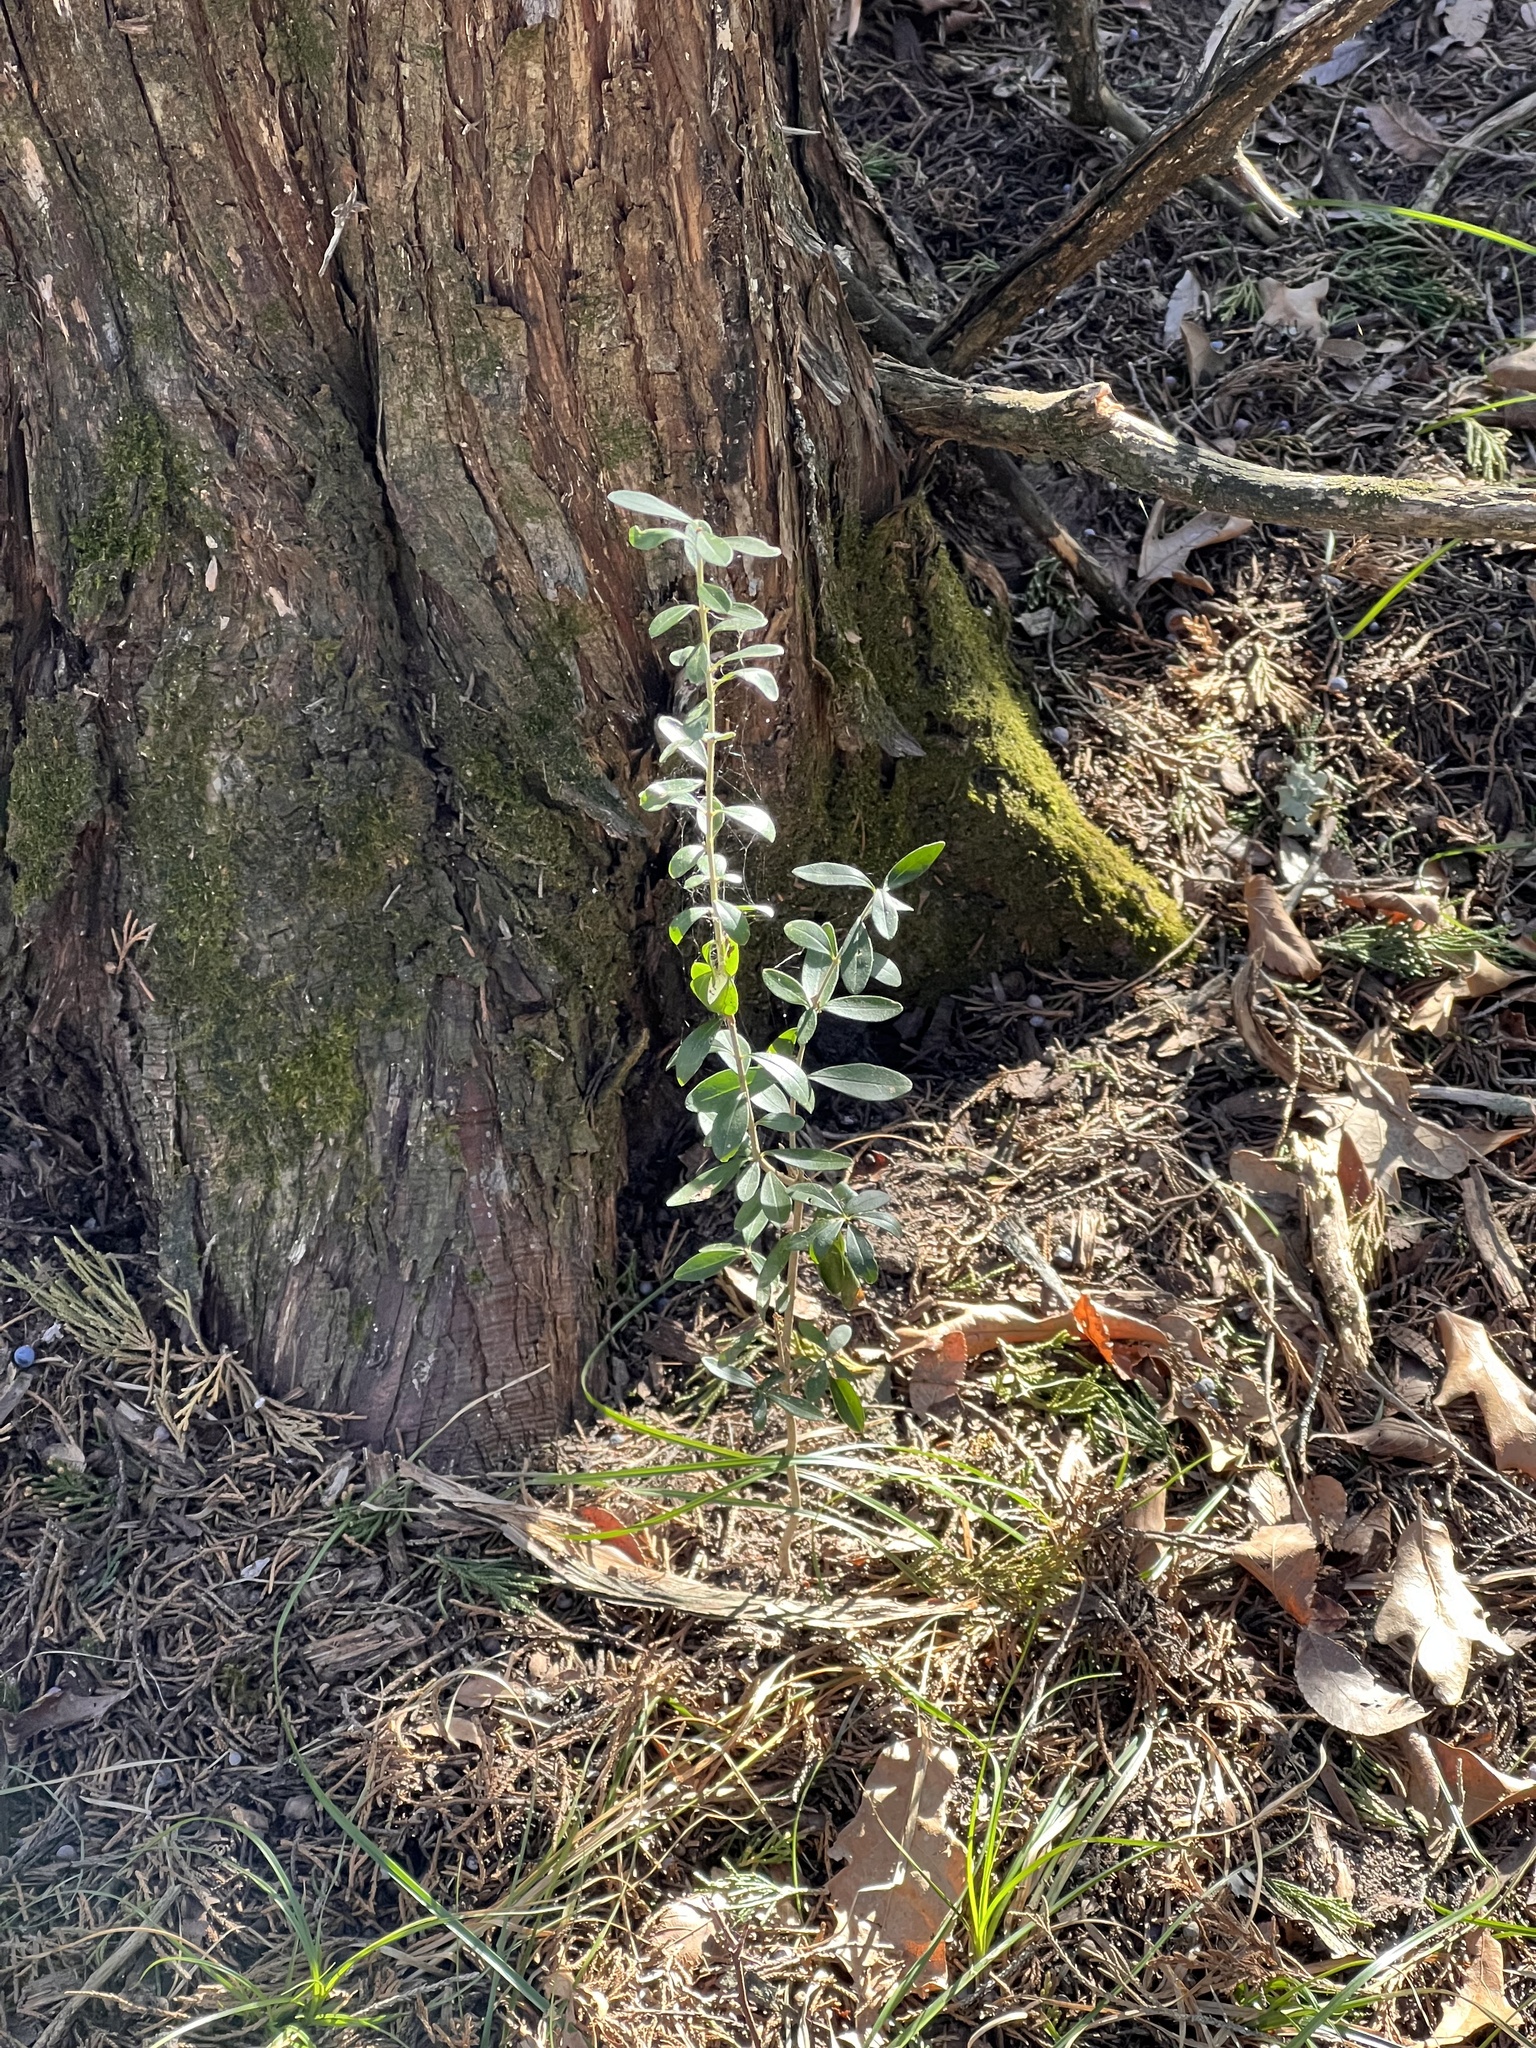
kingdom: Plantae
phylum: Tracheophyta
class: Magnoliopsida
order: Aquifoliales
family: Aquifoliaceae
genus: Ilex
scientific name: Ilex decidua
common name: Possum-haw
